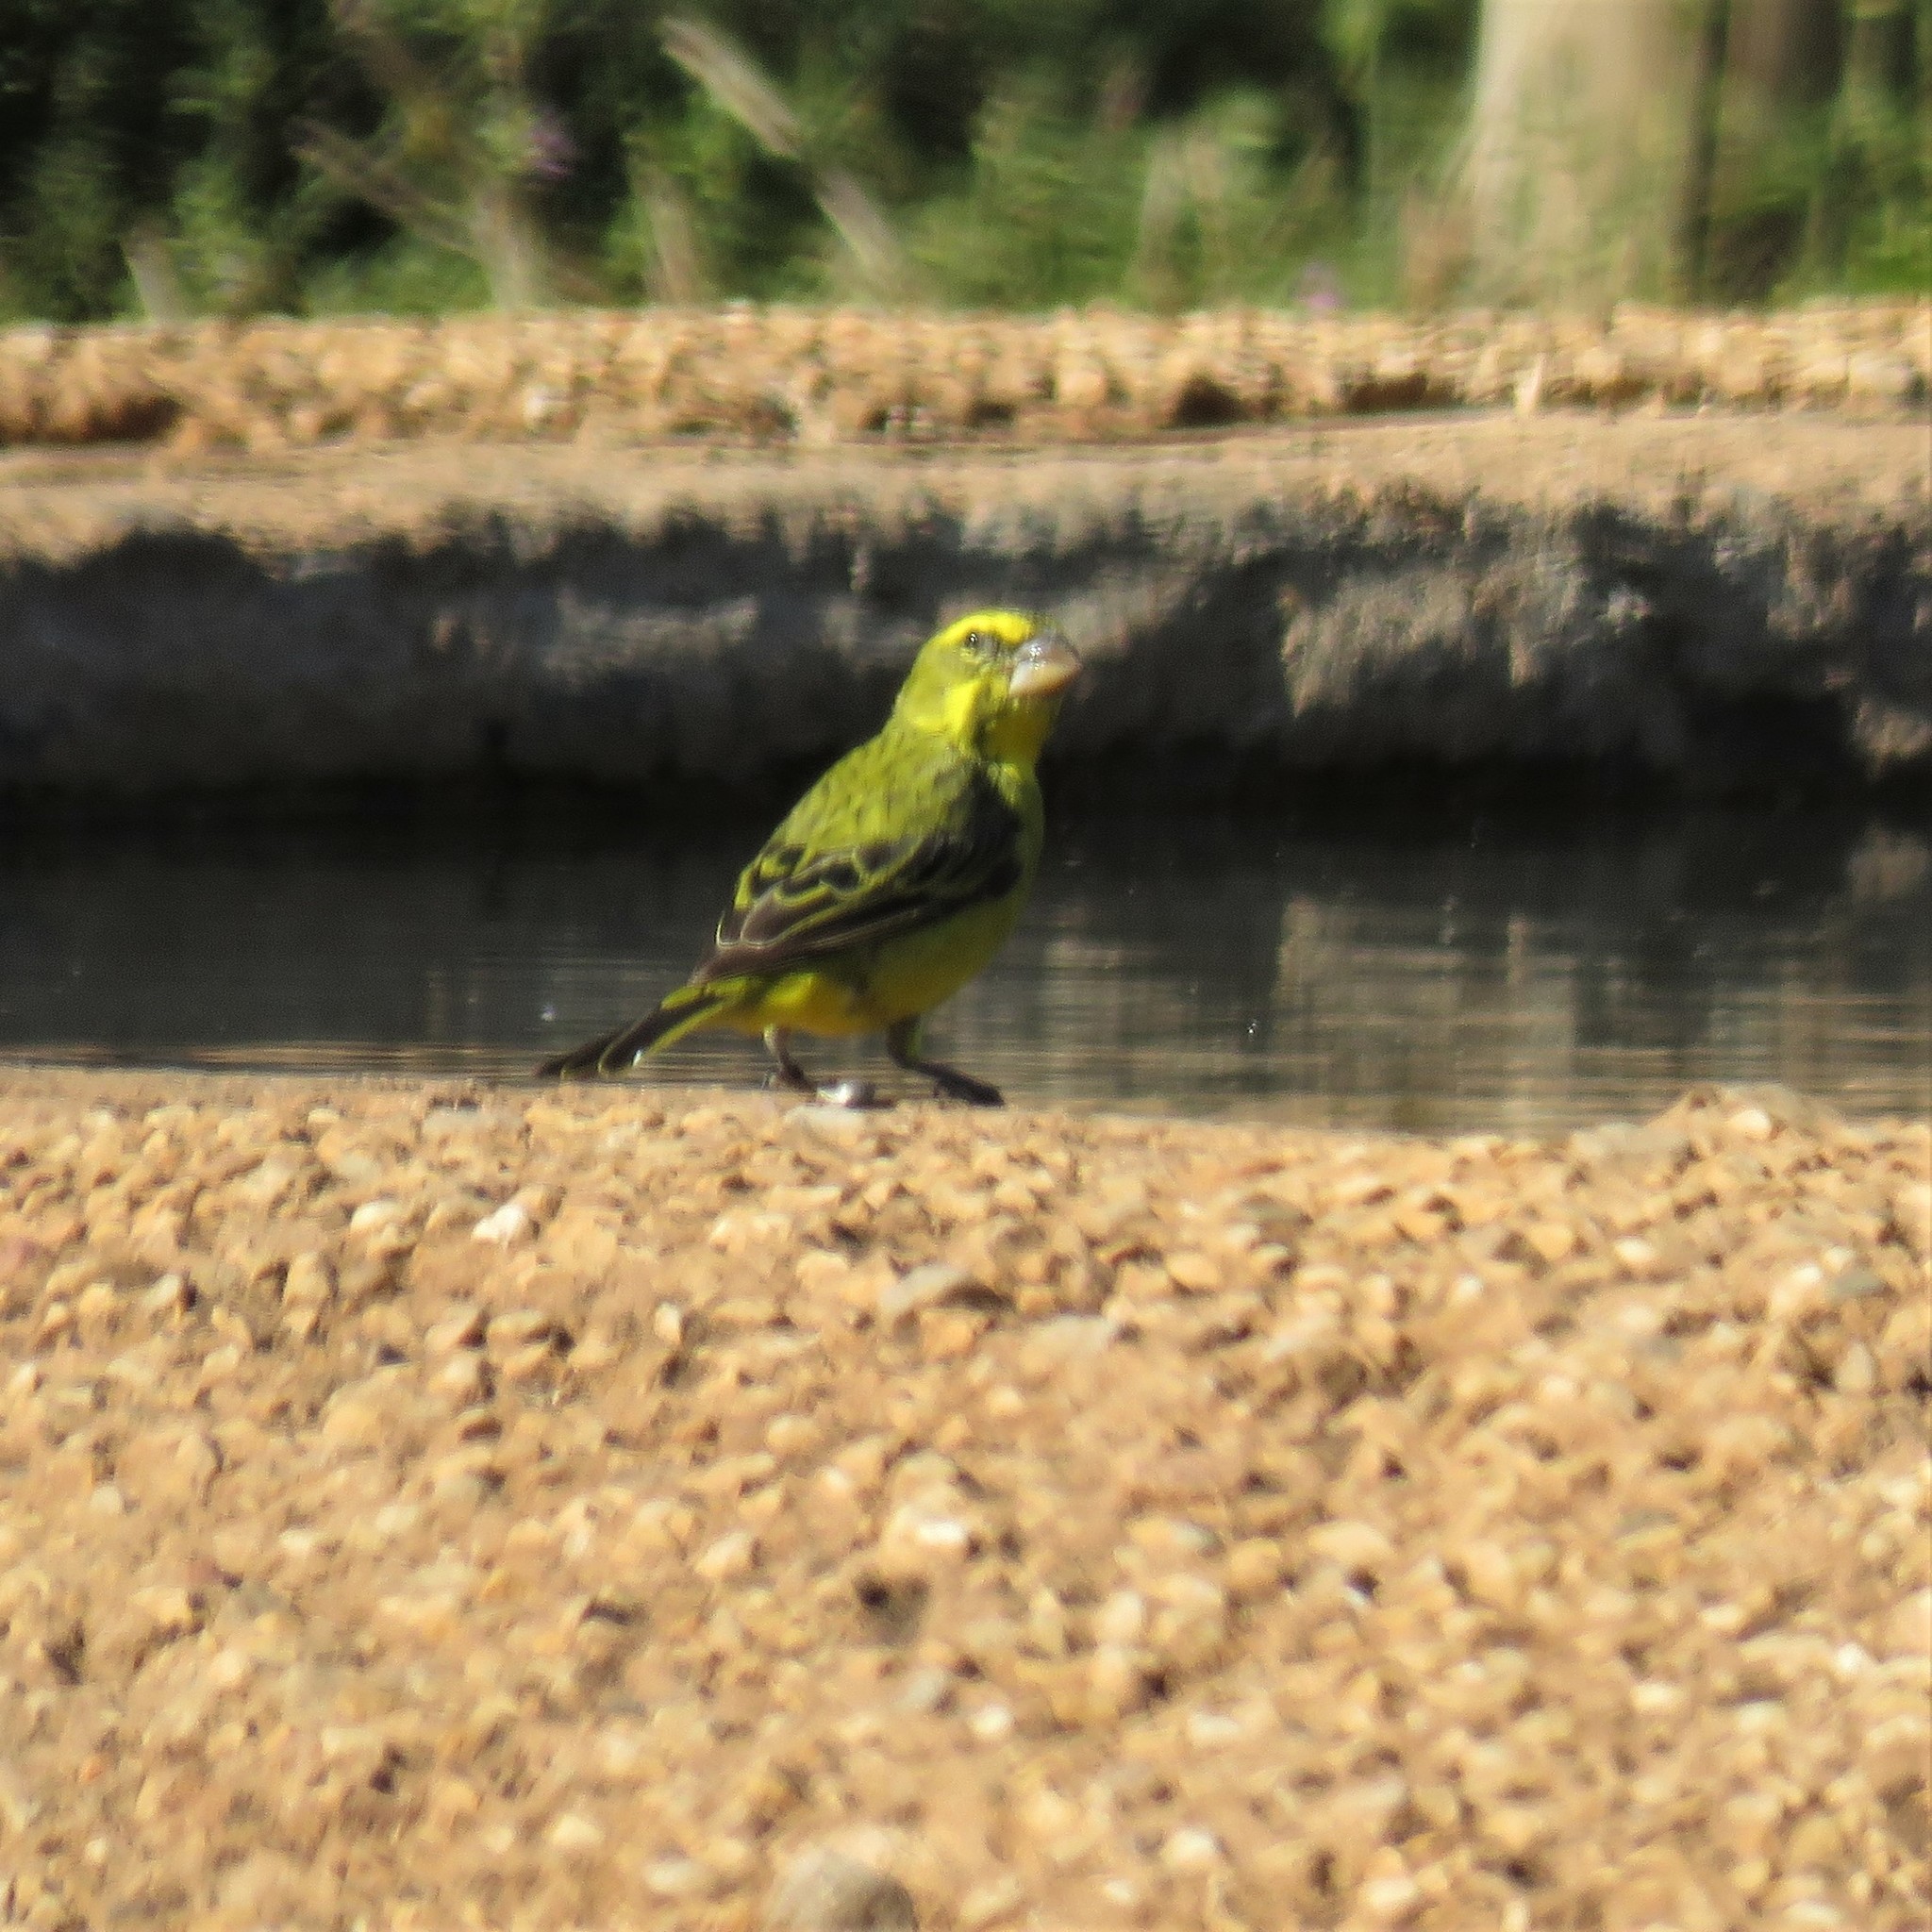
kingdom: Animalia
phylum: Chordata
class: Aves
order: Passeriformes
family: Fringillidae
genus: Crithagra
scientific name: Crithagra sulphurata
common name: Brimstone canary
